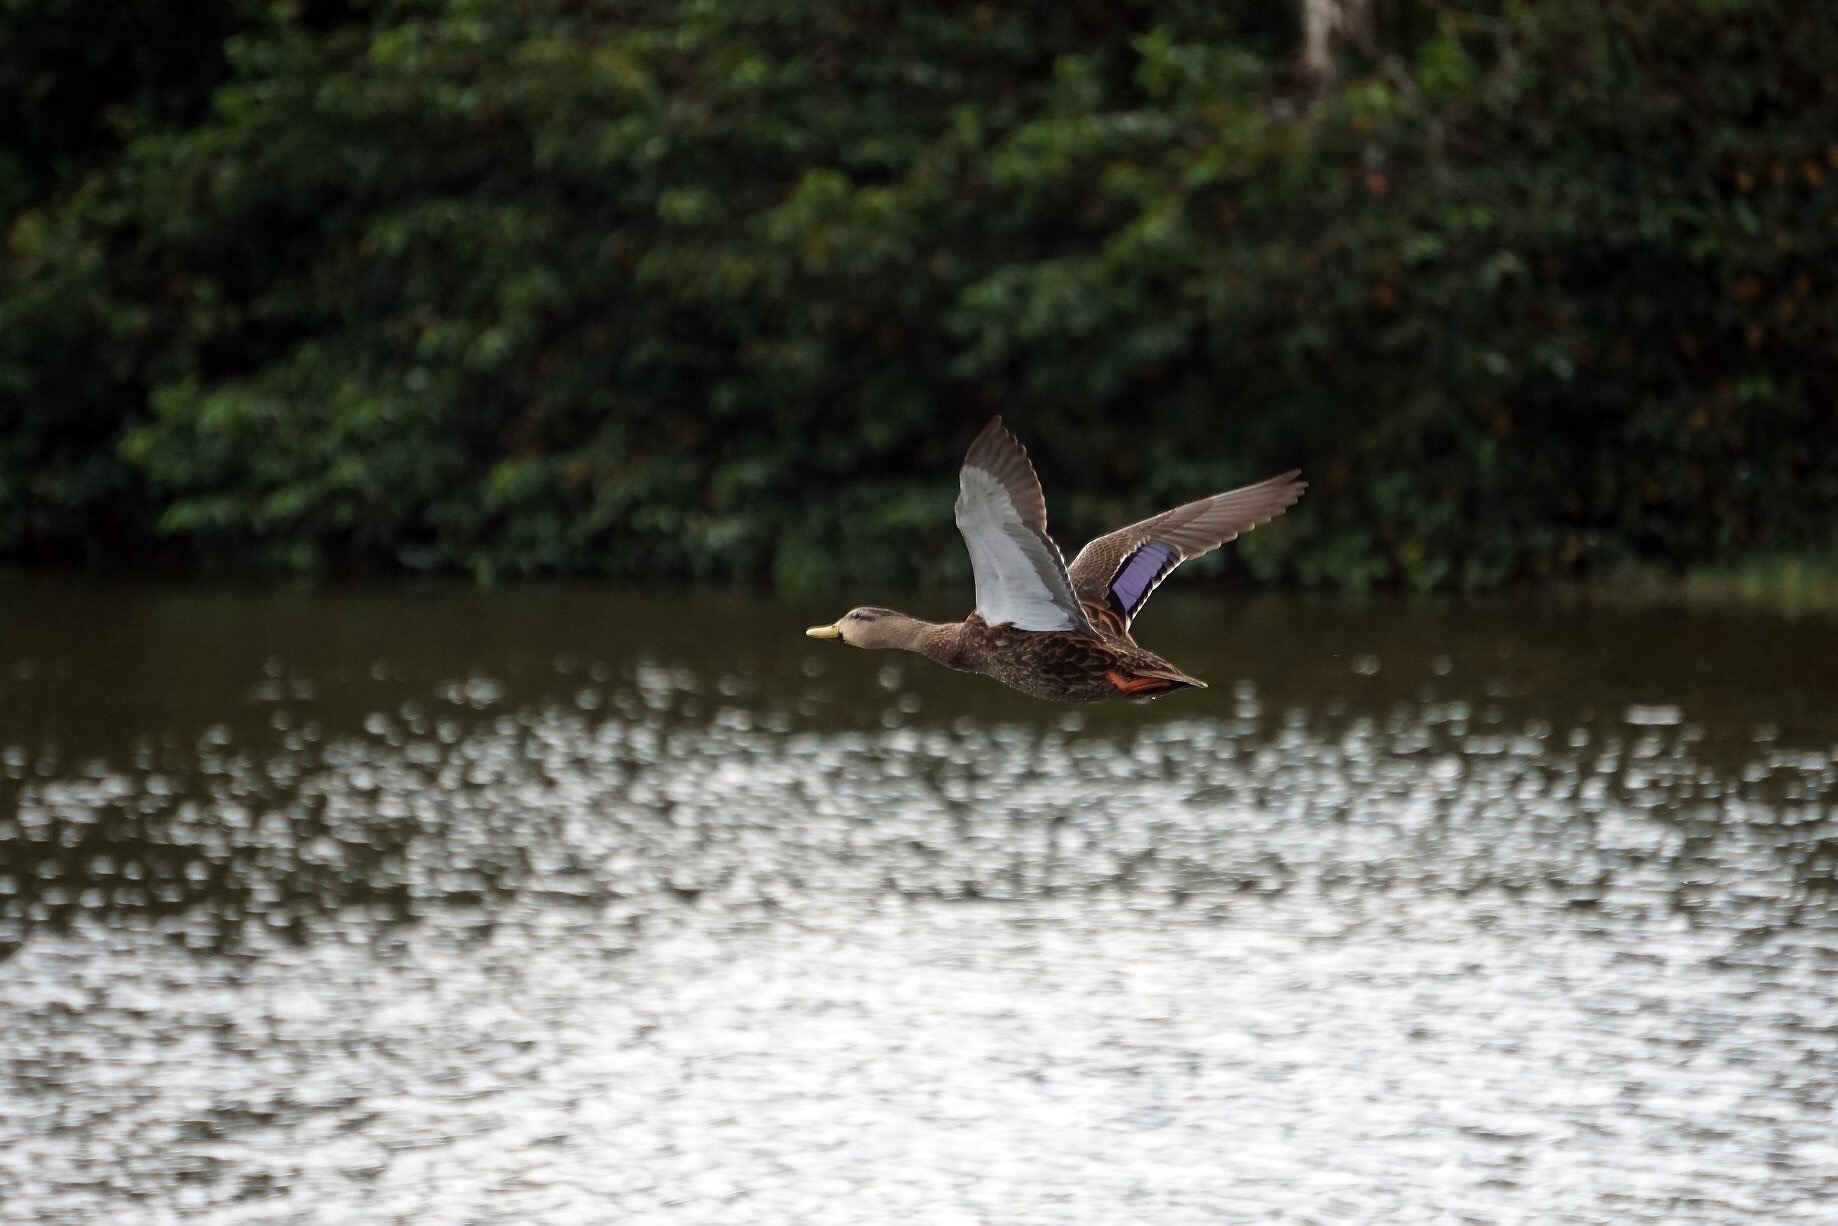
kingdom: Animalia
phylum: Chordata
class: Aves
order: Anseriformes
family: Anatidae
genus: Anas
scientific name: Anas
